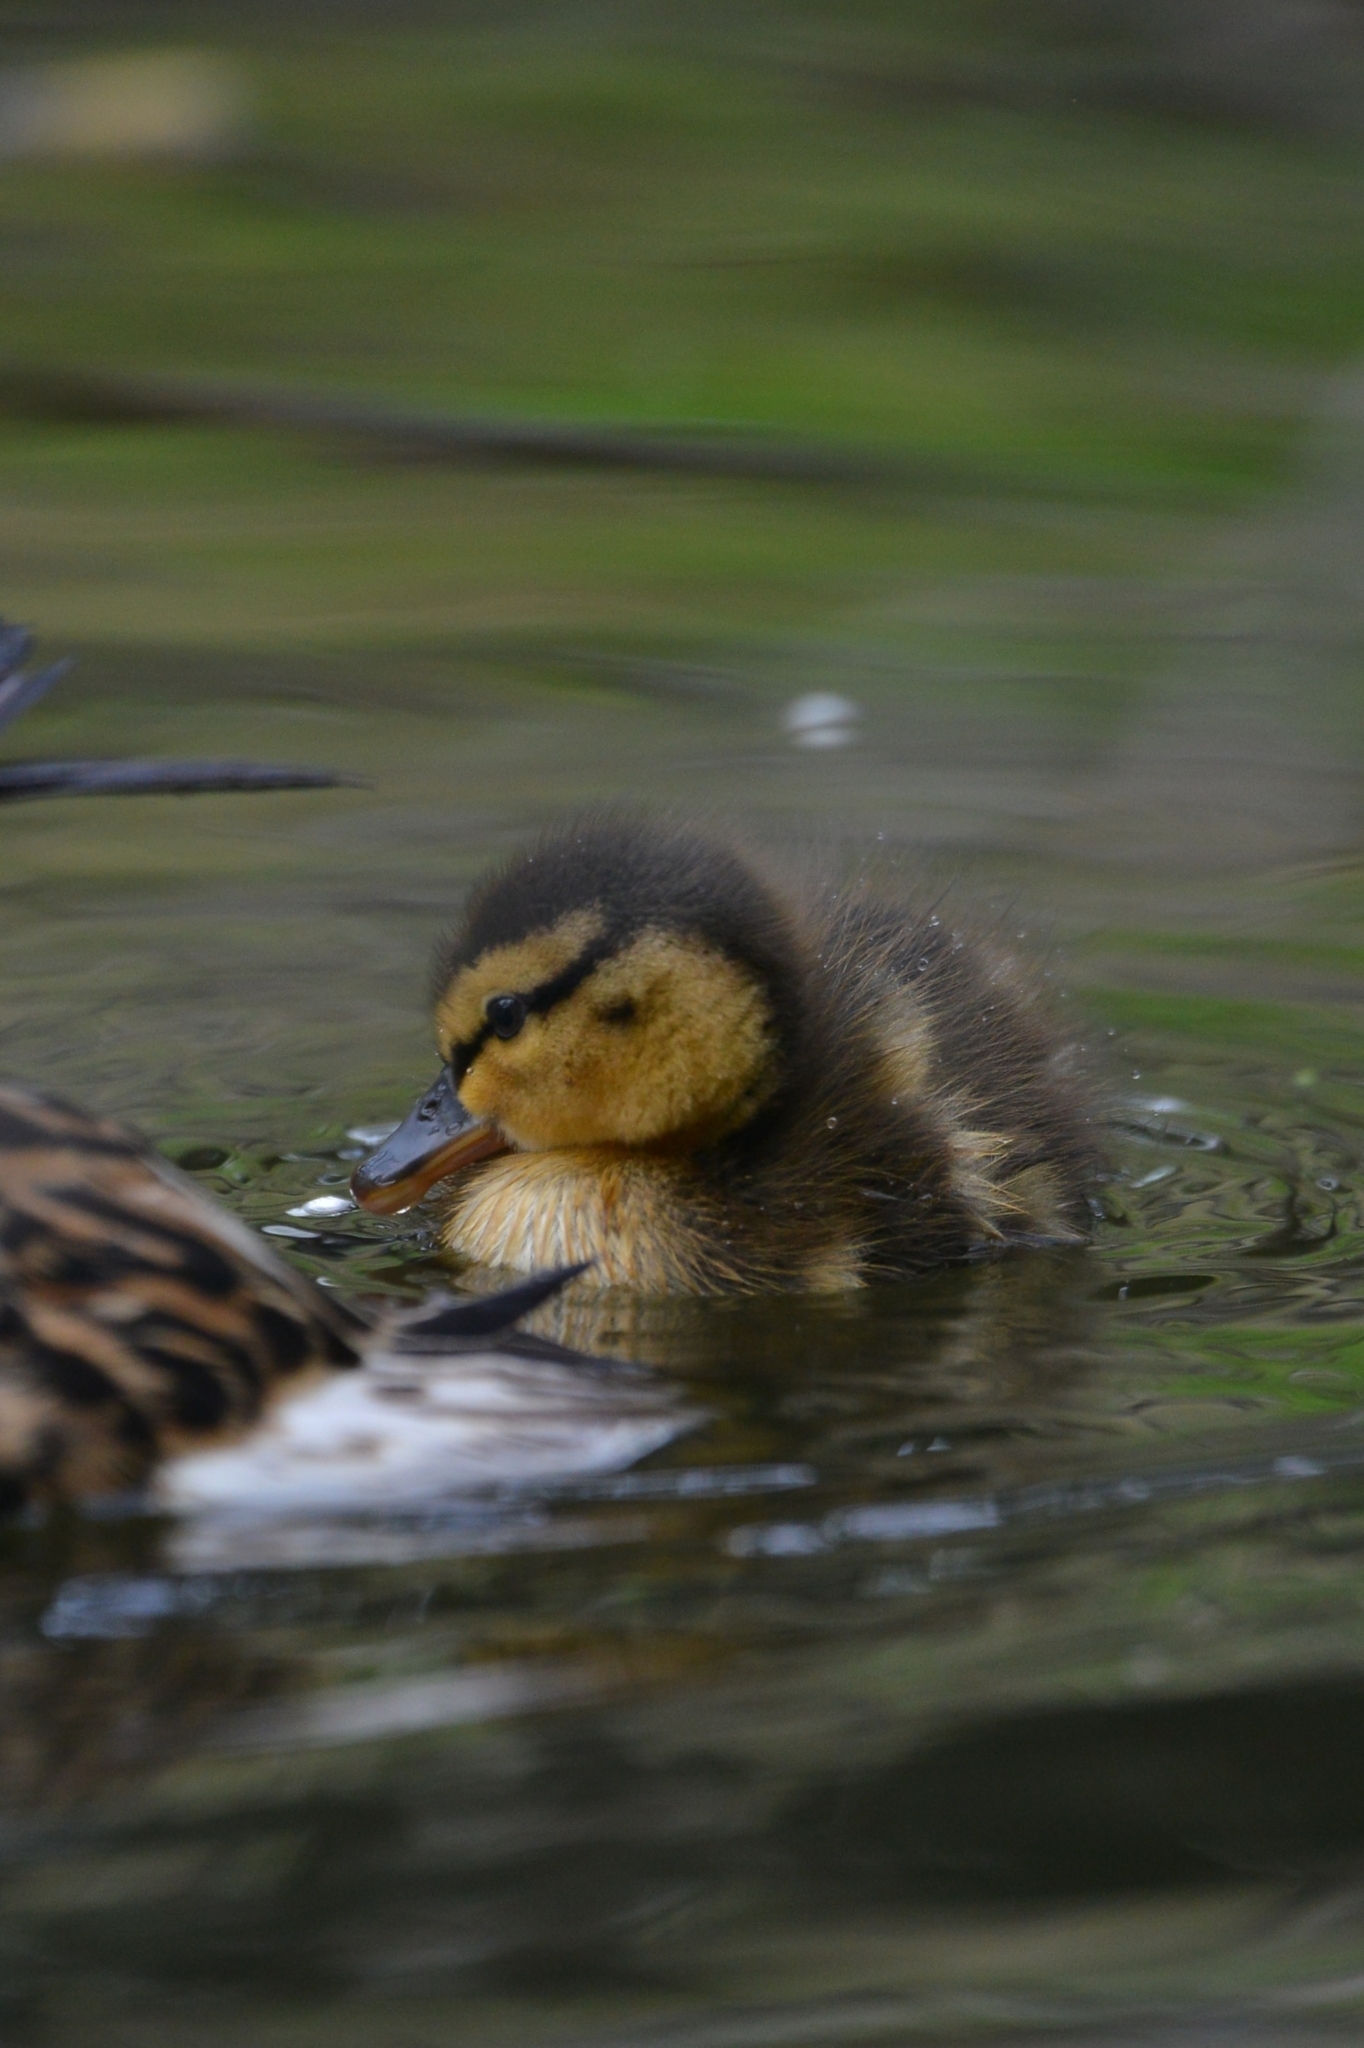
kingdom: Animalia
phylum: Chordata
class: Aves
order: Anseriformes
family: Anatidae
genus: Anas
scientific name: Anas platyrhynchos
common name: Mallard
